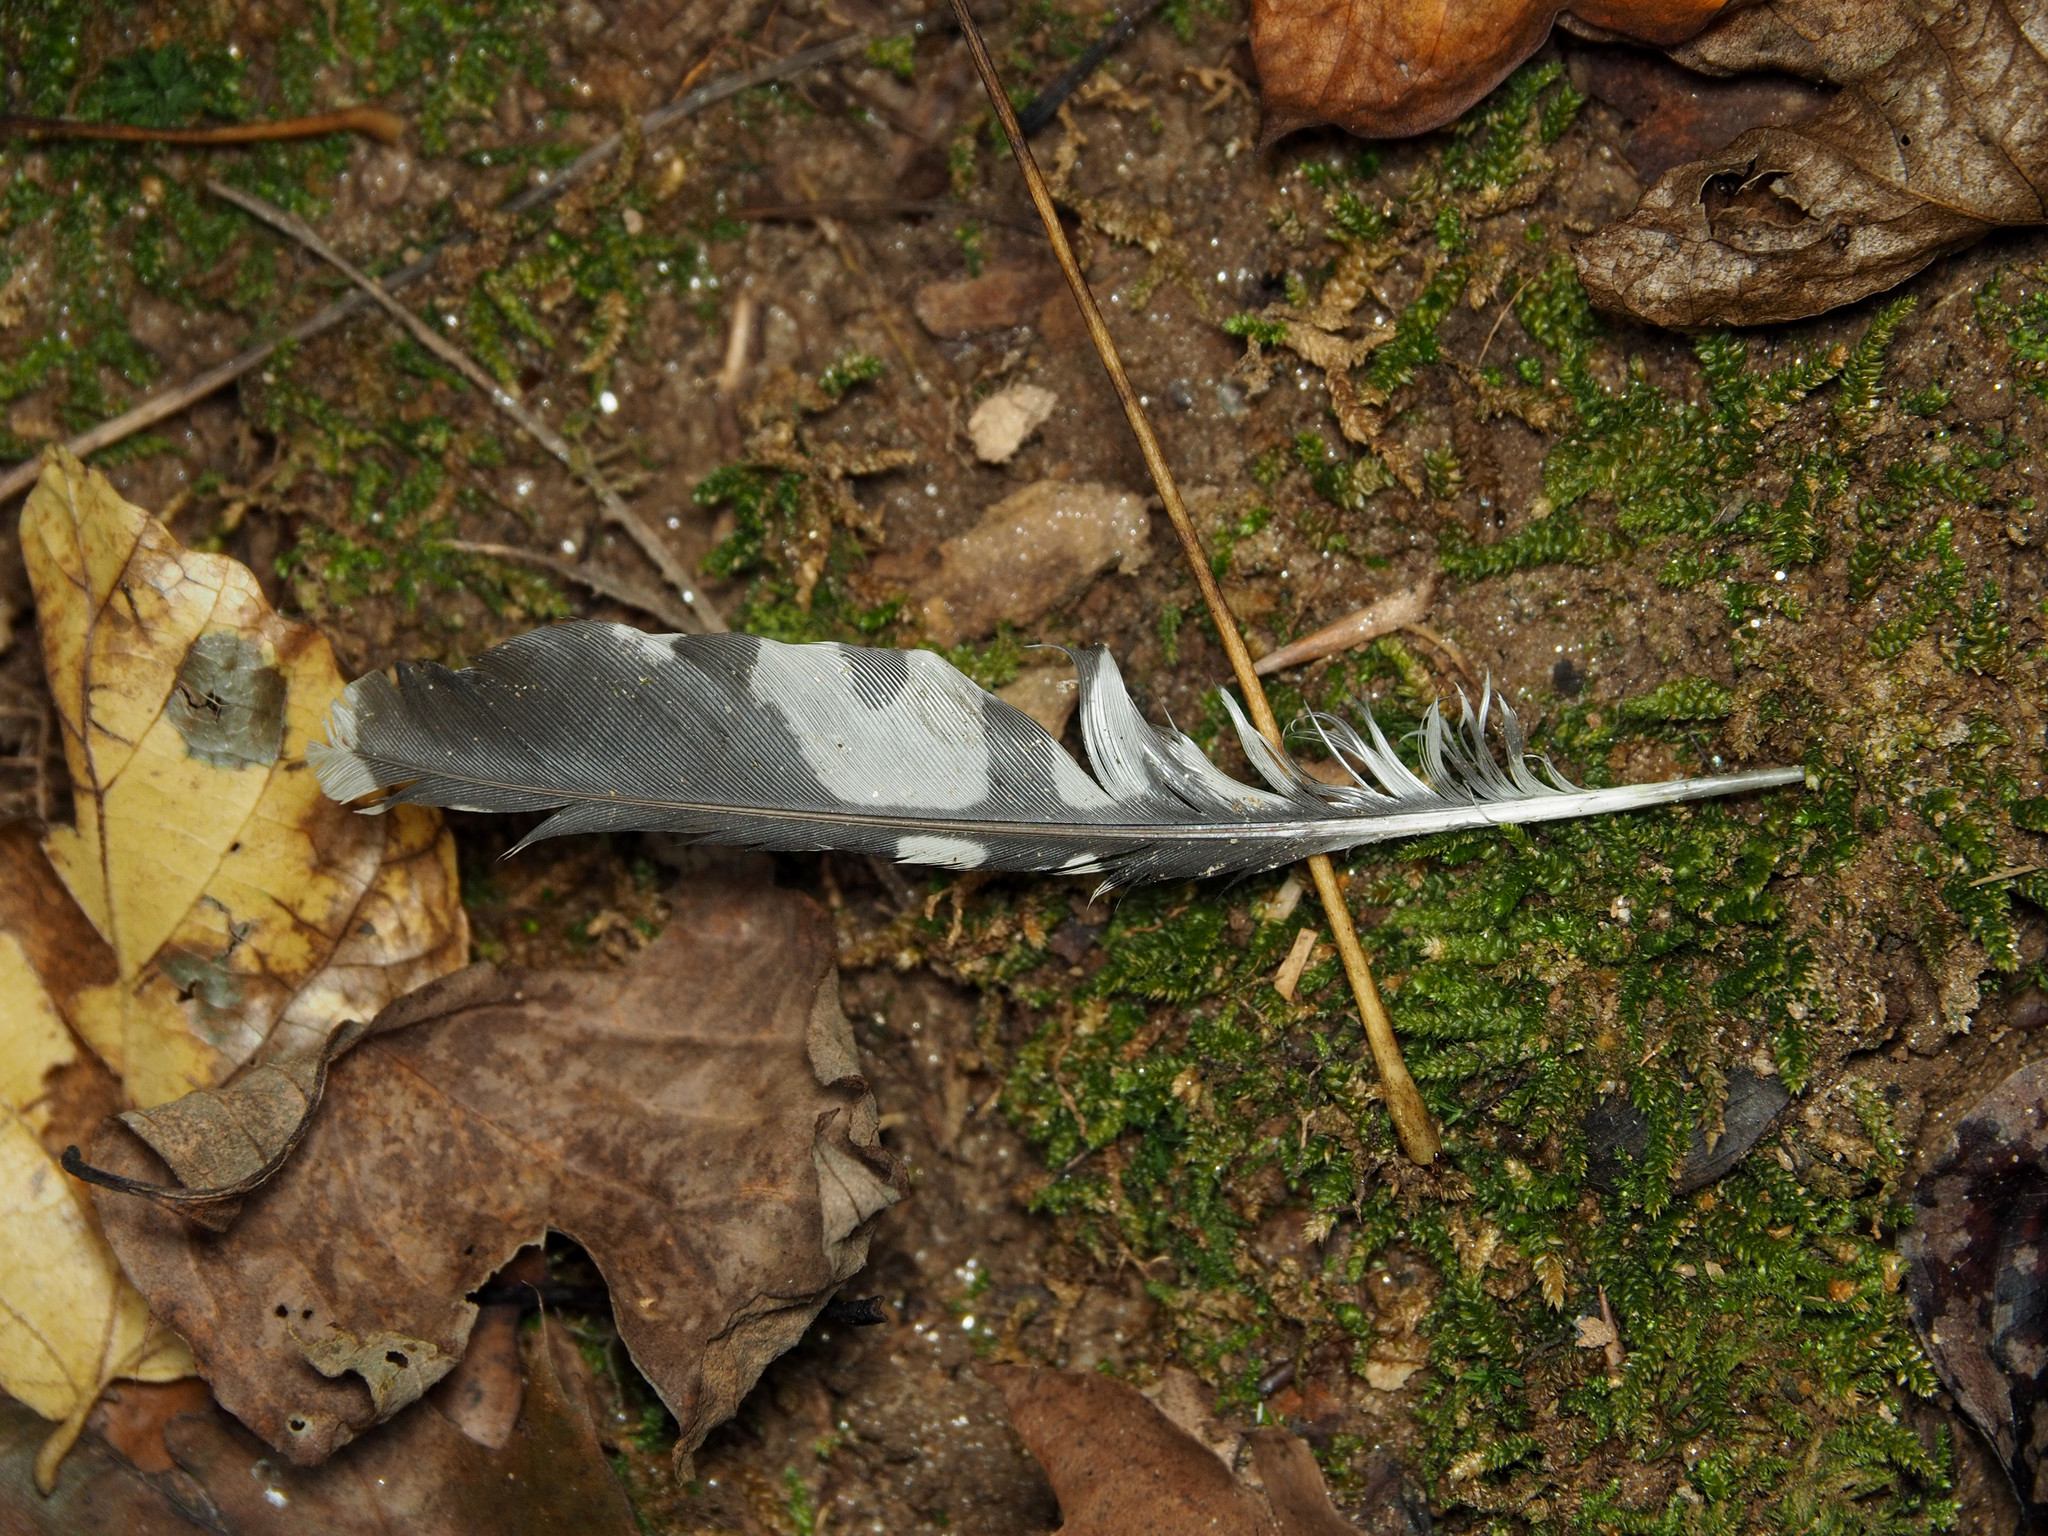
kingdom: Animalia
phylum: Chordata
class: Aves
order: Piciformes
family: Picidae
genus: Melanerpes
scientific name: Melanerpes carolinus
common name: Red-bellied woodpecker
